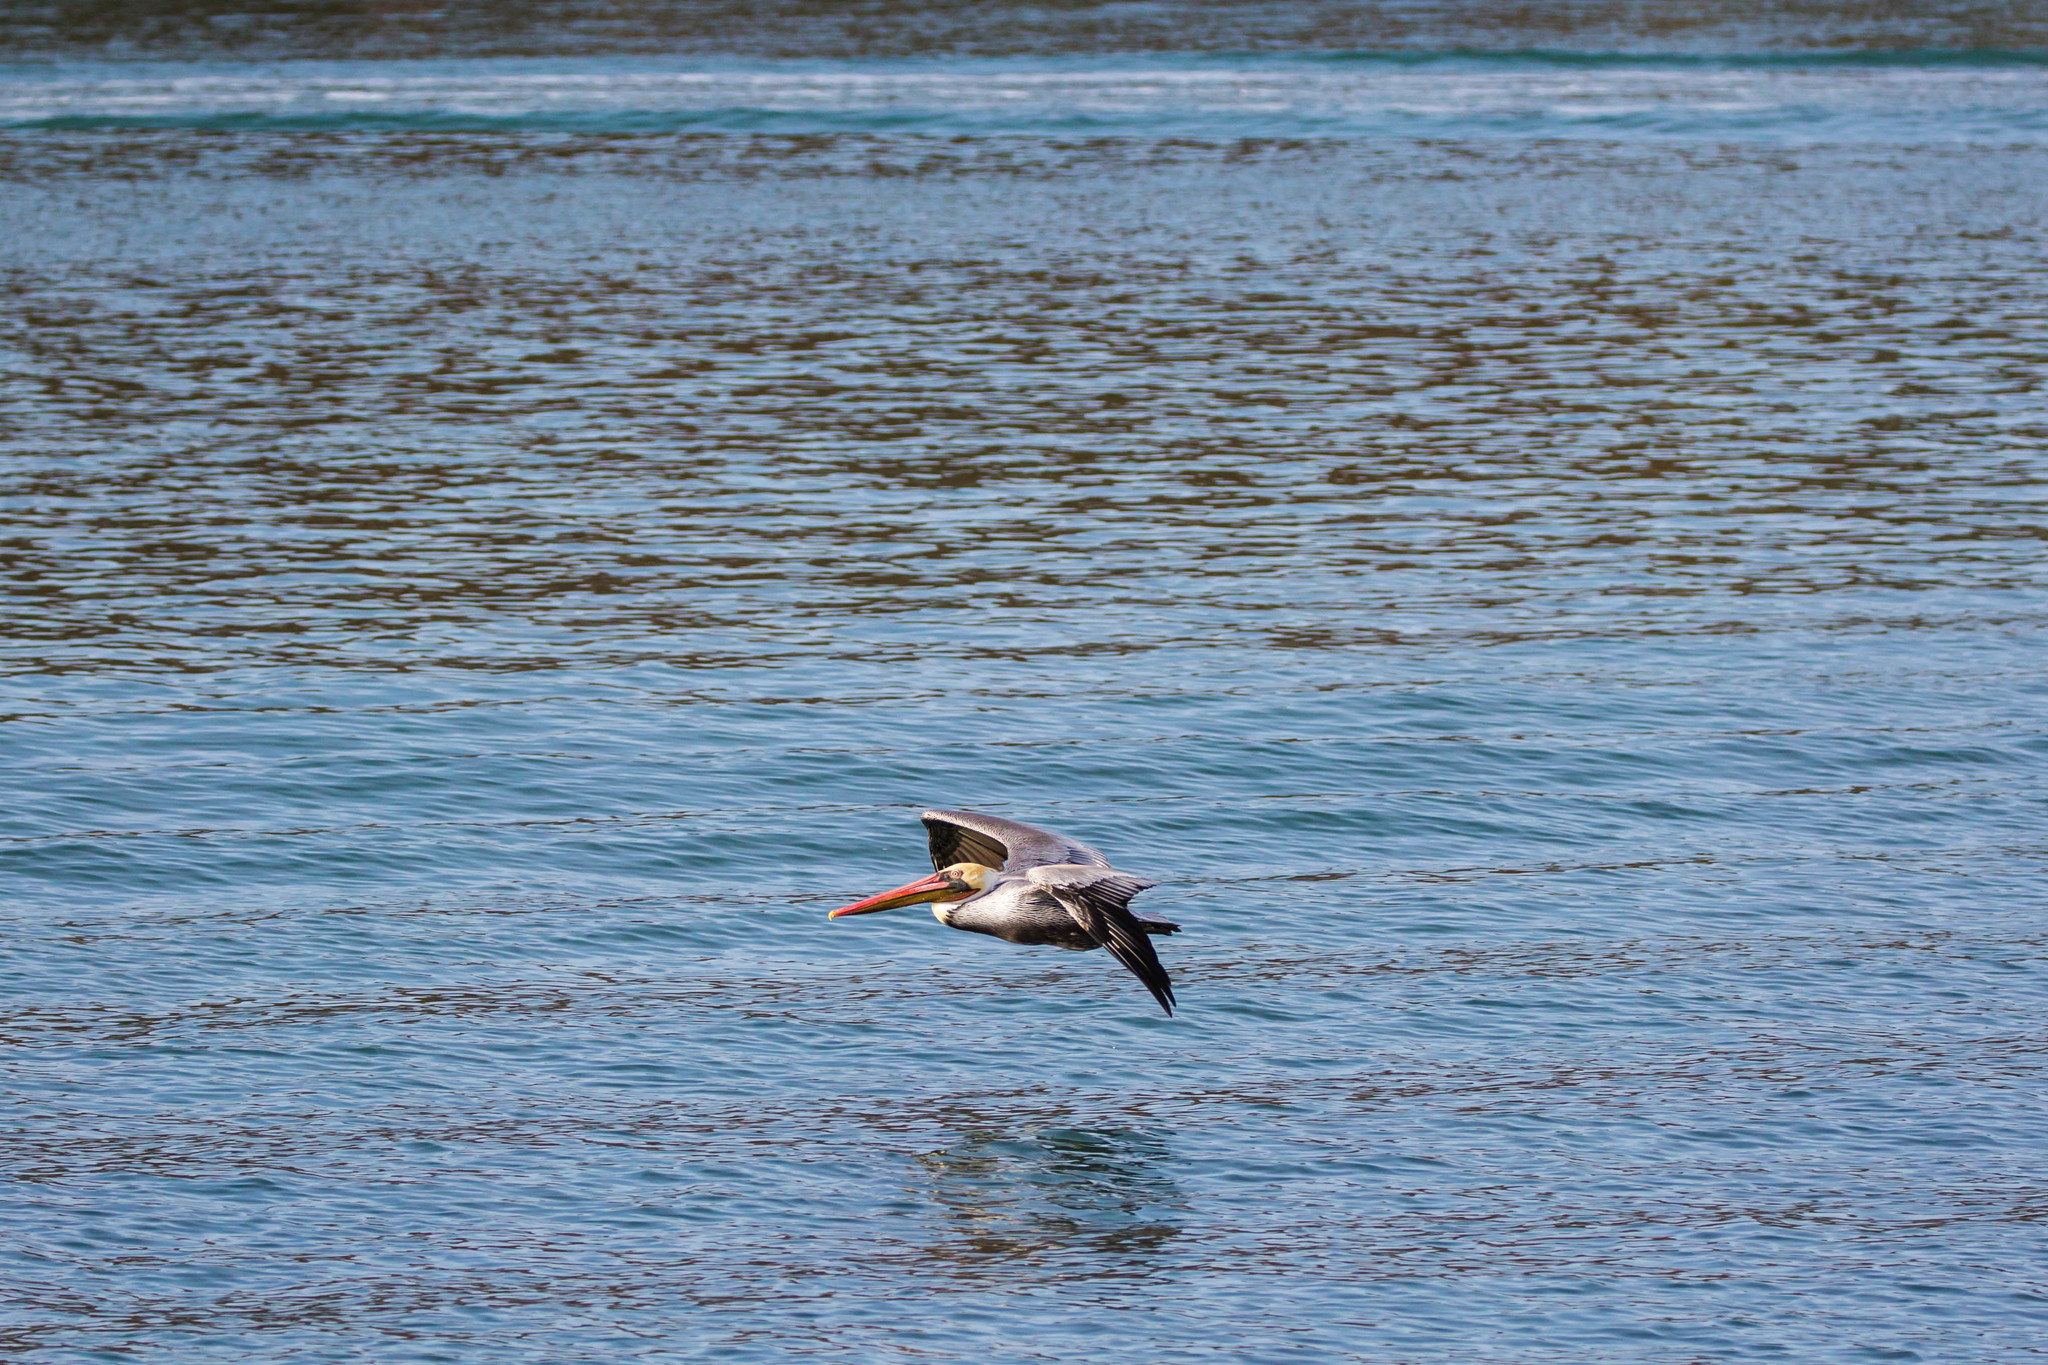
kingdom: Animalia
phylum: Chordata
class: Aves
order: Pelecaniformes
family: Pelecanidae
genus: Pelecanus
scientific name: Pelecanus occidentalis
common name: Brown pelican
